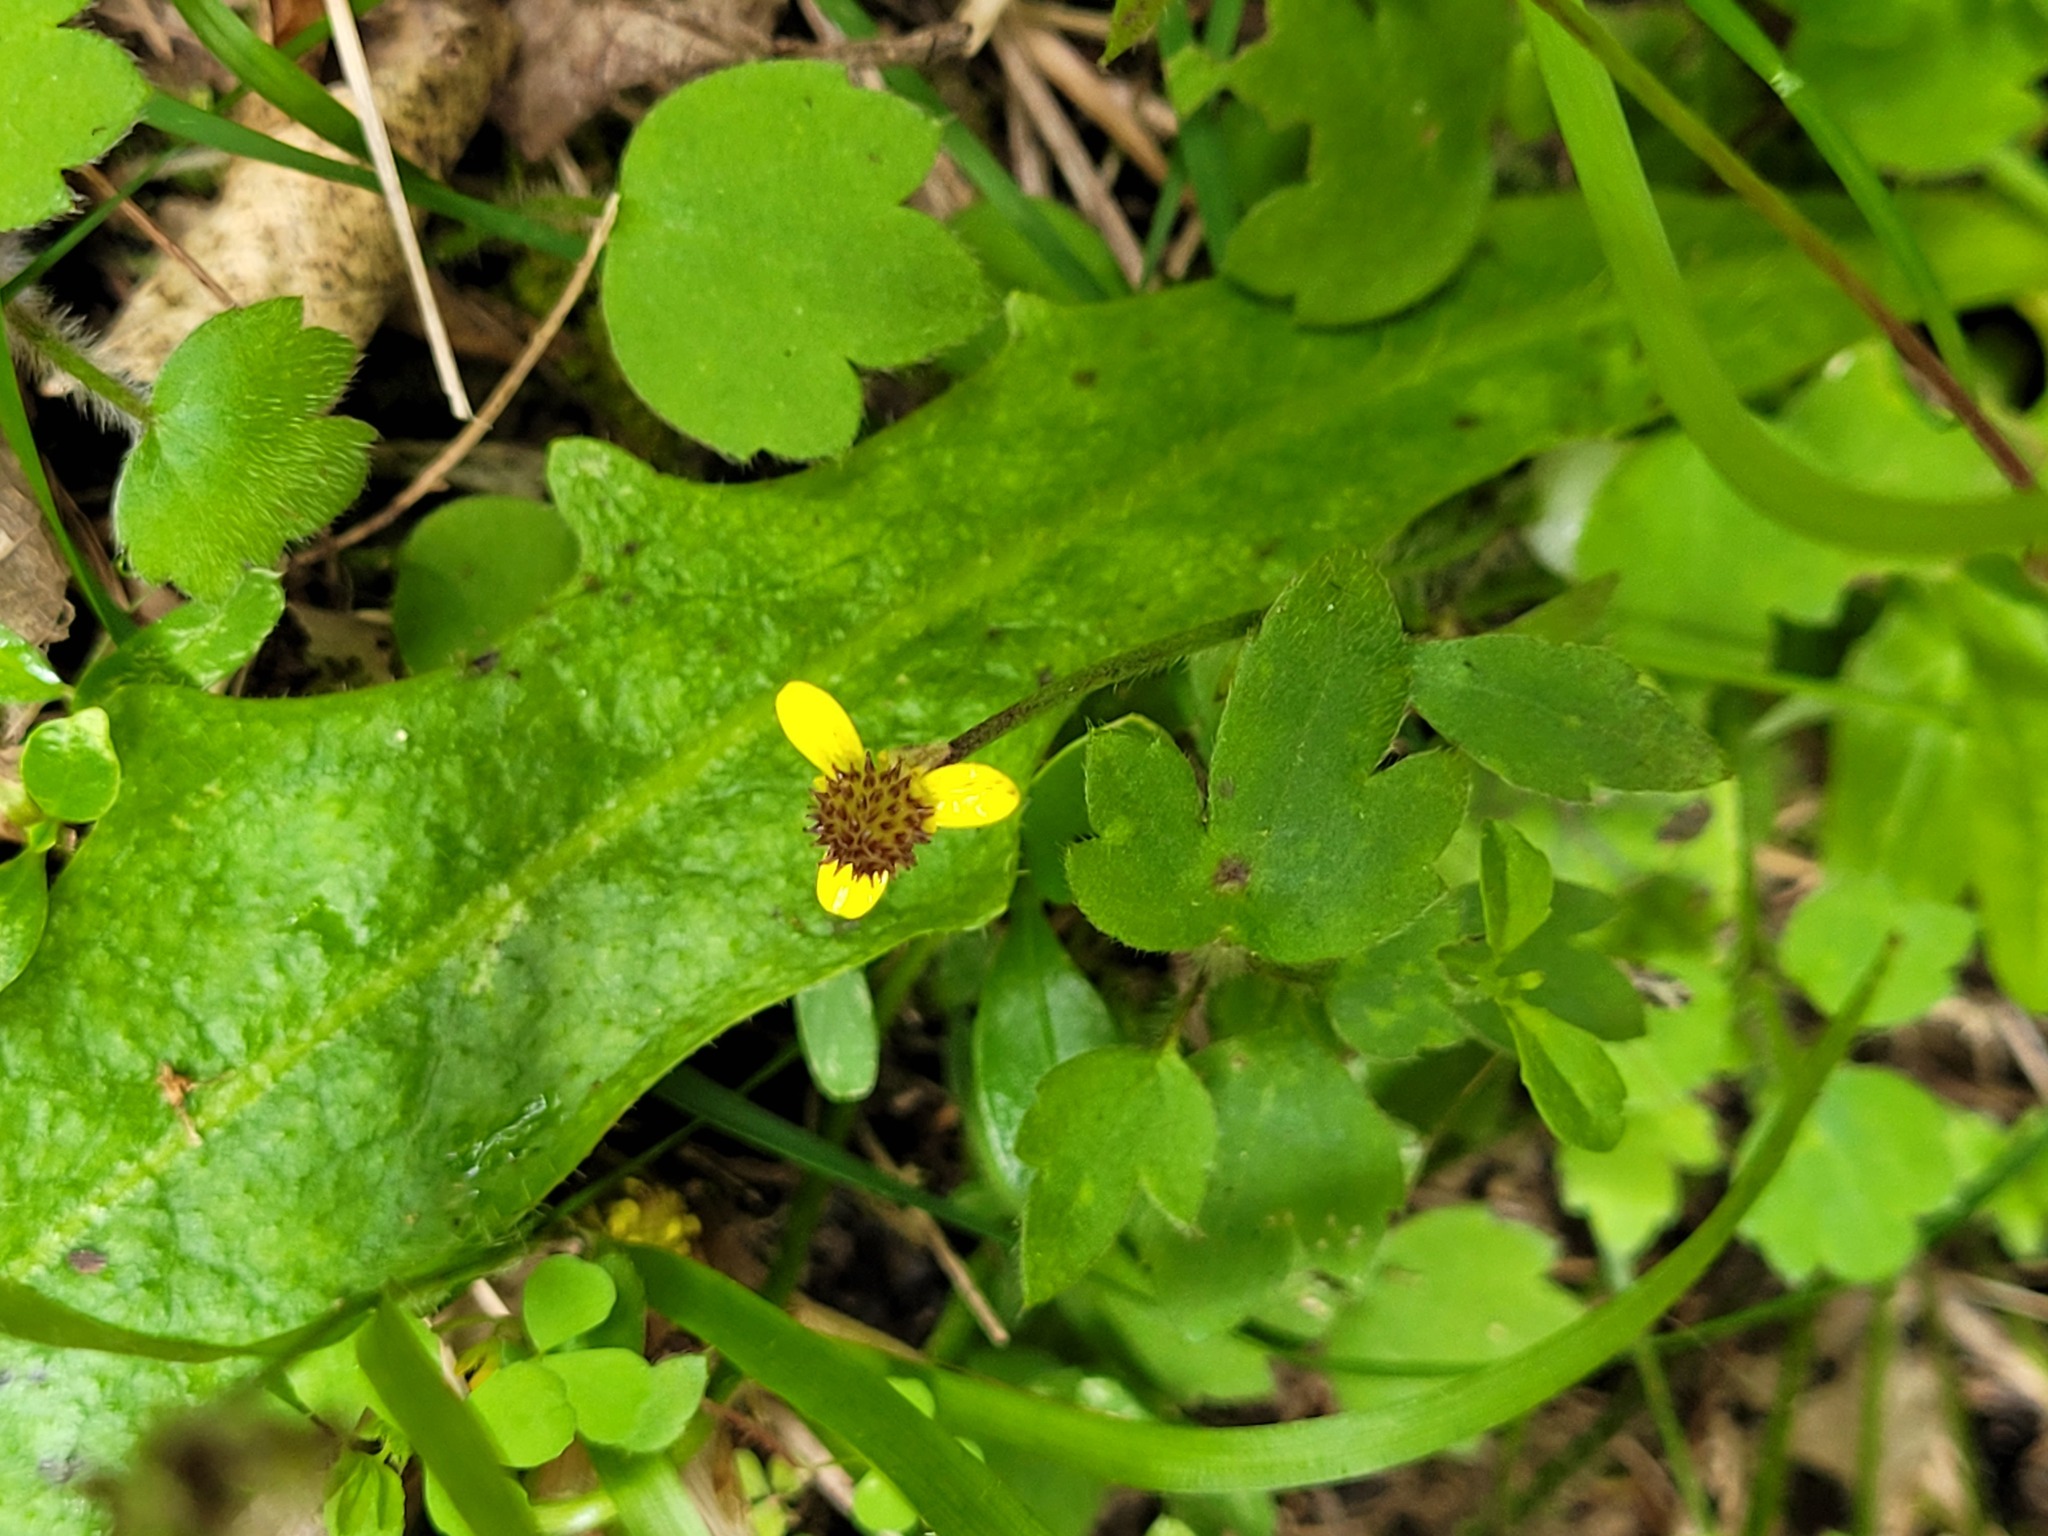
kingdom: Plantae
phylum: Tracheophyta
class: Magnoliopsida
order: Ranunculales
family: Ranunculaceae
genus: Ranunculus
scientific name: Ranunculus reflexus
